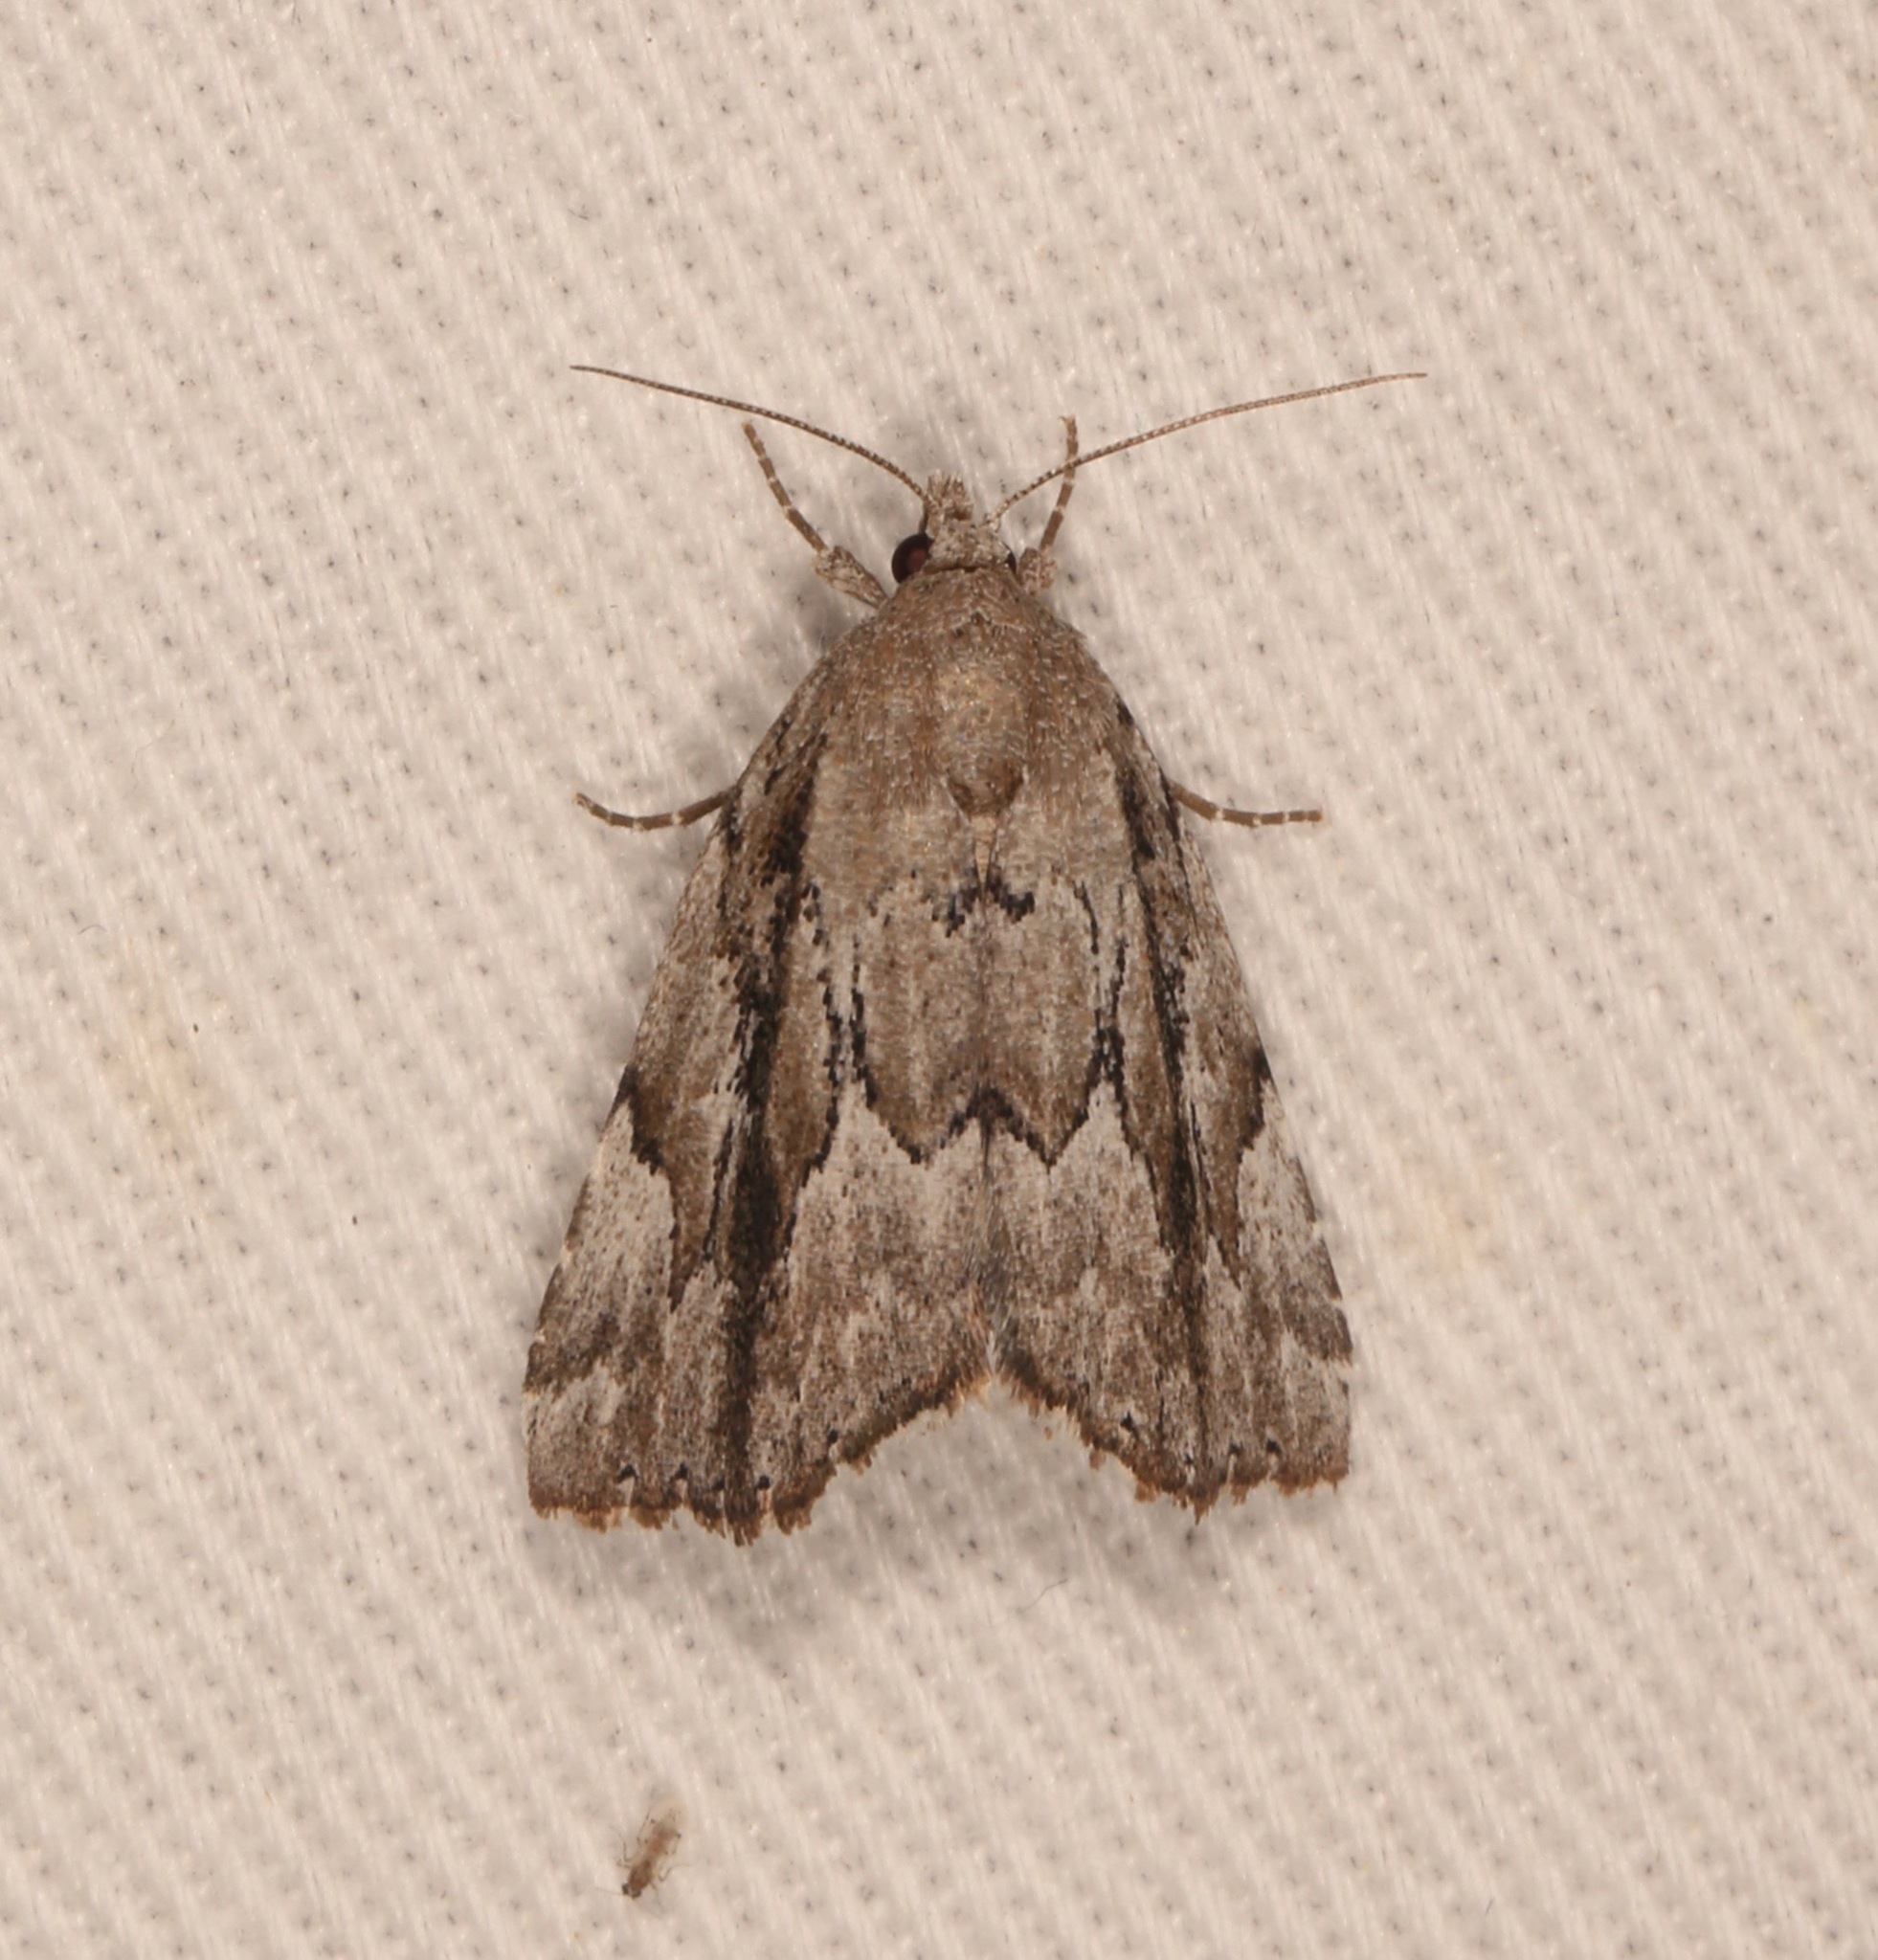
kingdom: Animalia
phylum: Arthropoda
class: Insecta
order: Lepidoptera
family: Erebidae
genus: Cutina
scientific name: Cutina albopunctella
